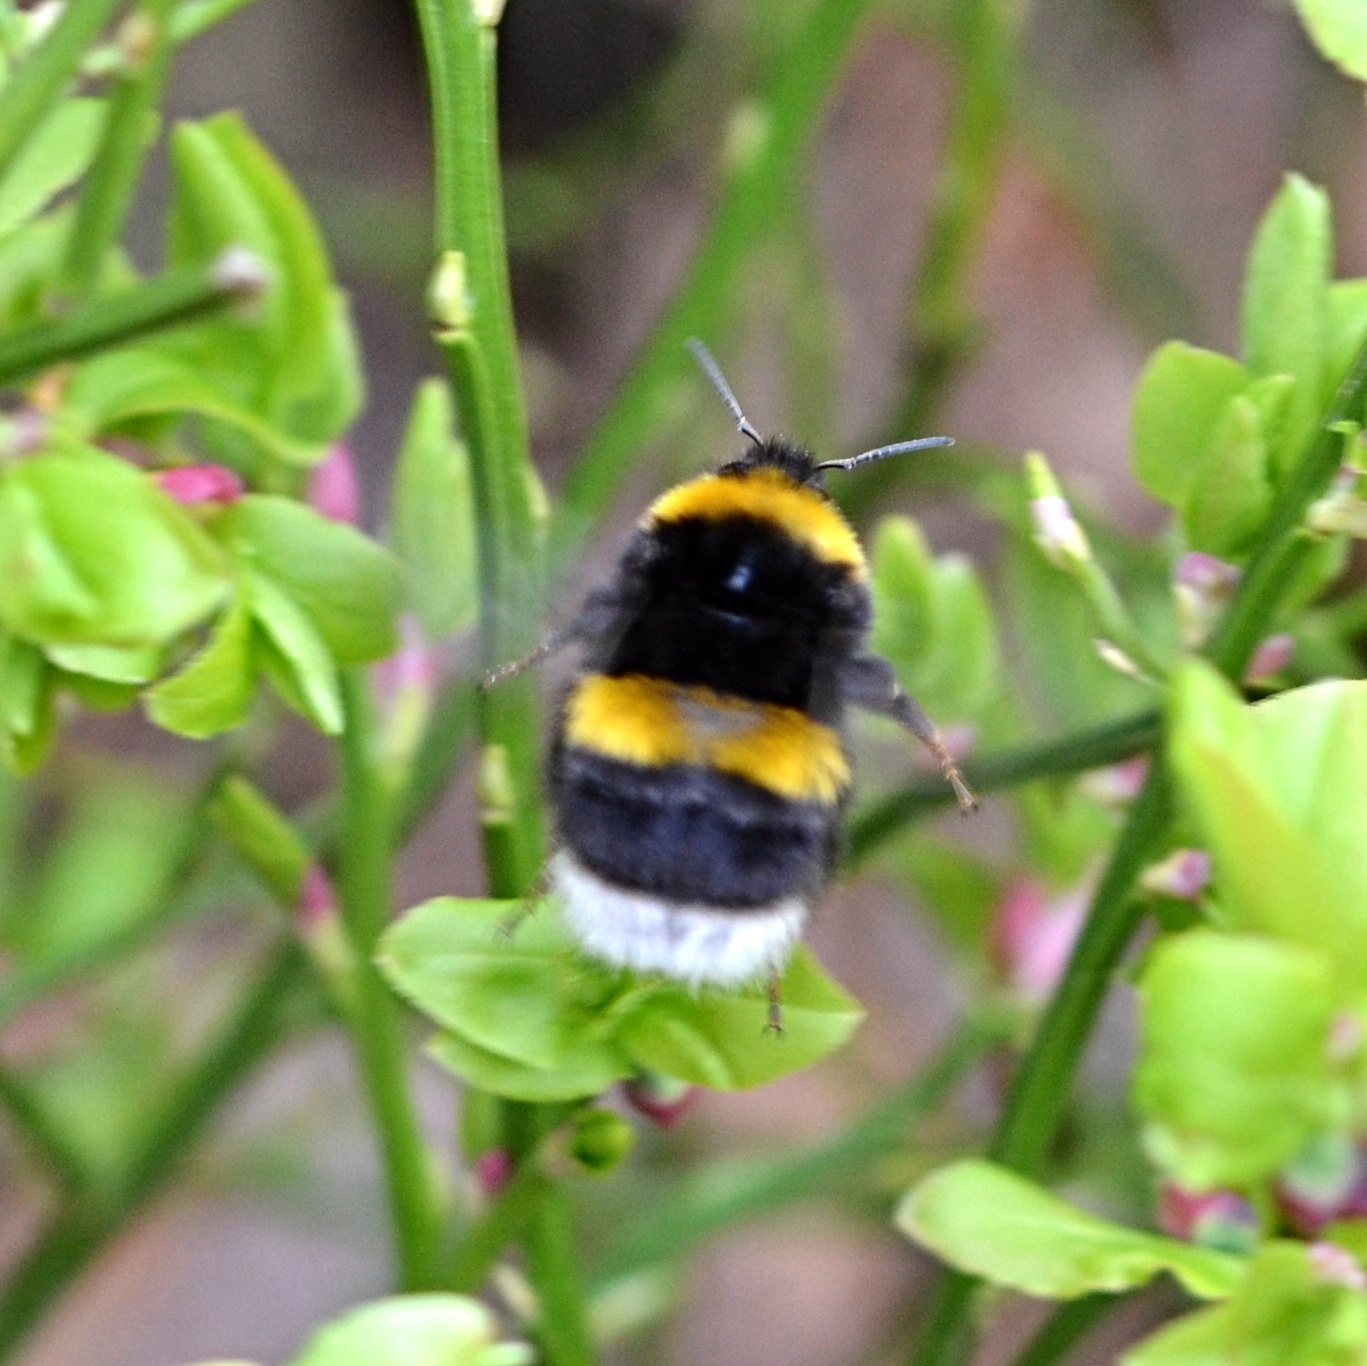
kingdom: Animalia
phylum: Arthropoda
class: Insecta
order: Hymenoptera
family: Apidae
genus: Bombus
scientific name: Bombus terrestris
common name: Buff-tailed bumblebee
